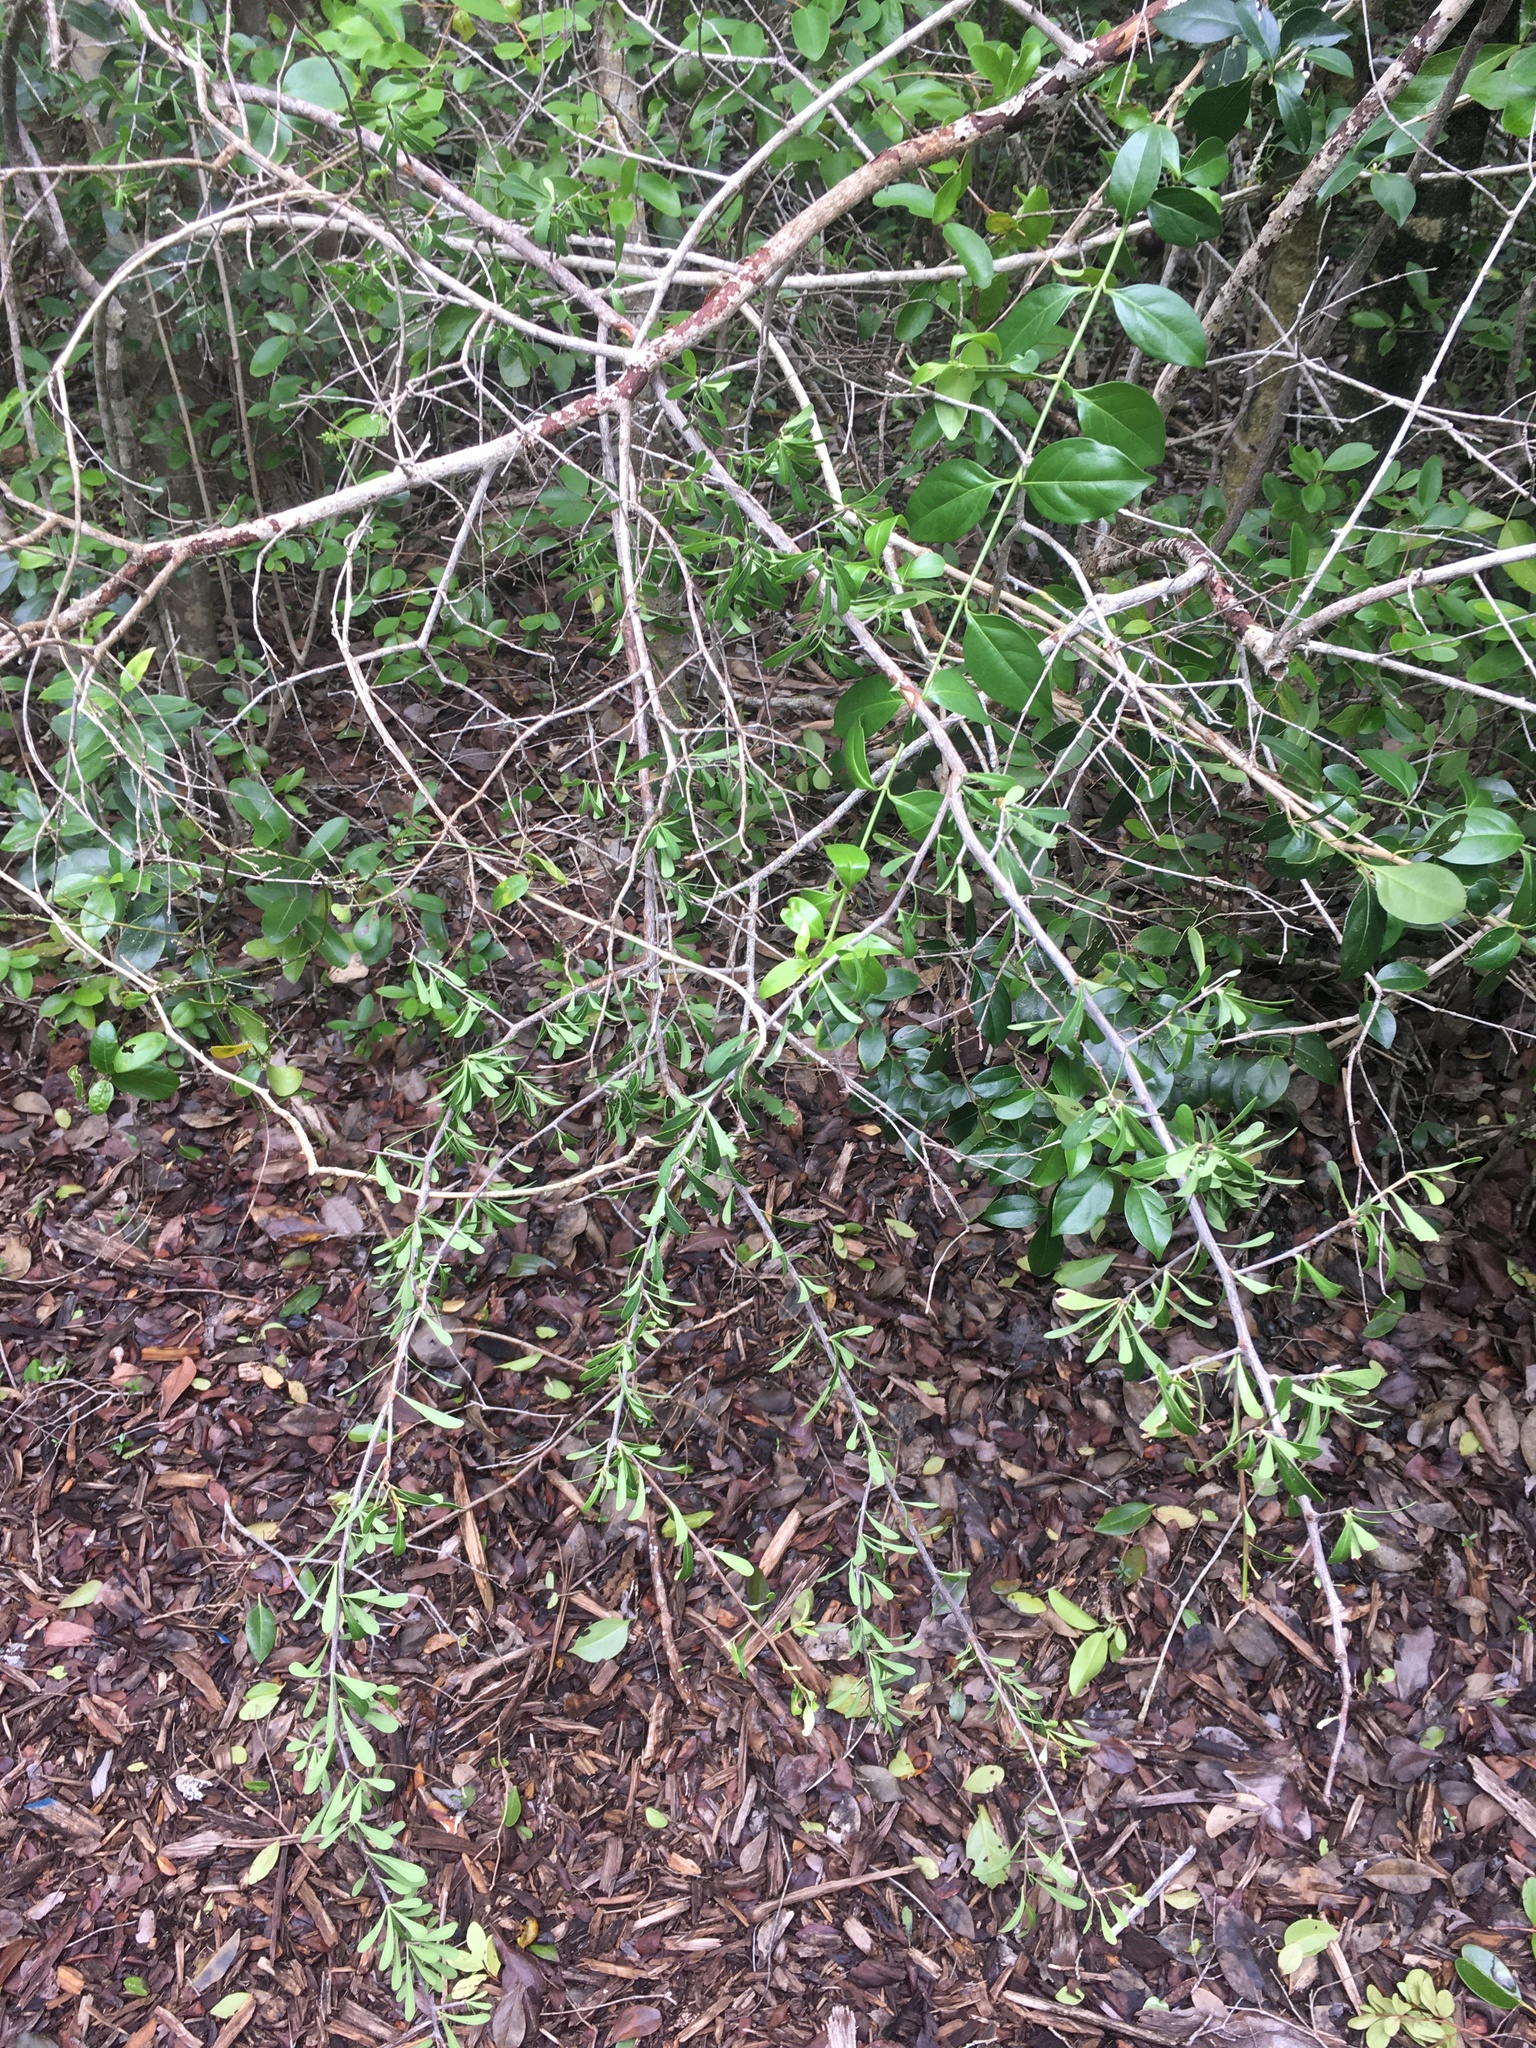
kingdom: Plantae
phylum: Tracheophyta
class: Magnoliopsida
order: Ericales
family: Sapotaceae
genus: Sideroxylon
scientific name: Sideroxylon lanuginosum
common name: Chittamwood
